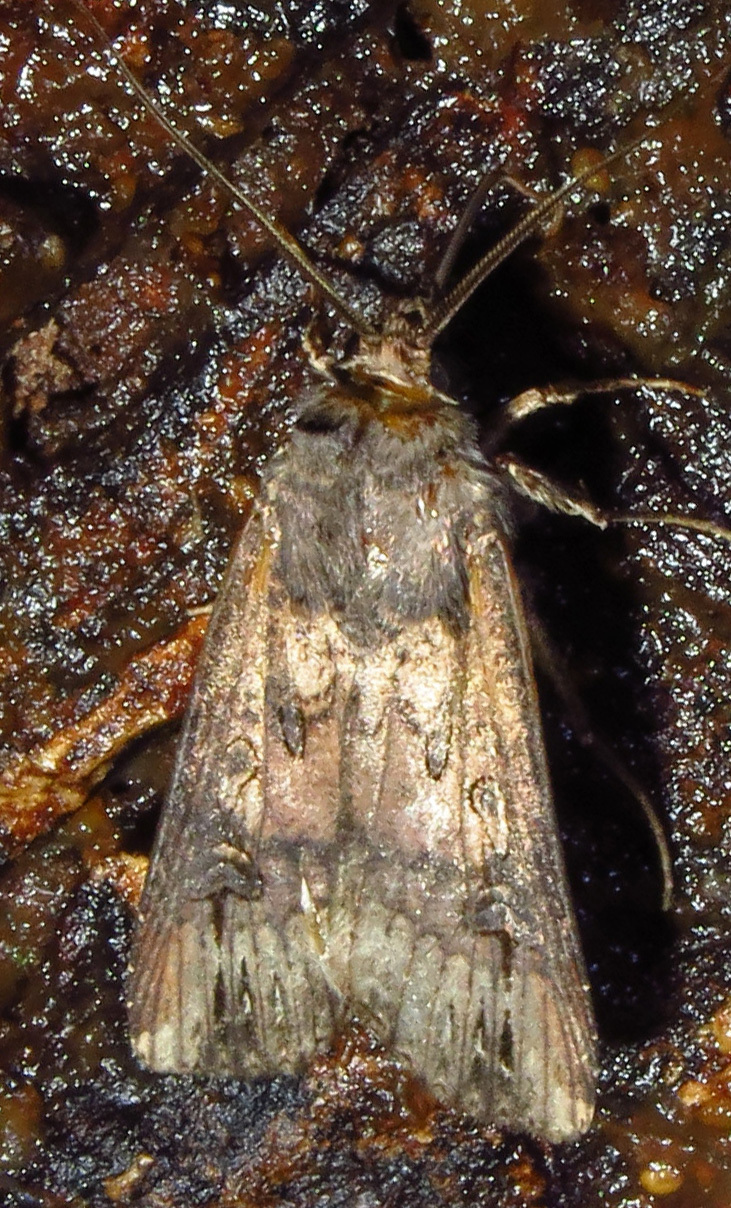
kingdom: Animalia
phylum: Arthropoda
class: Insecta
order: Lepidoptera
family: Noctuidae
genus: Agrotis
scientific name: Agrotis ipsilon
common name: Dark sword-grass
